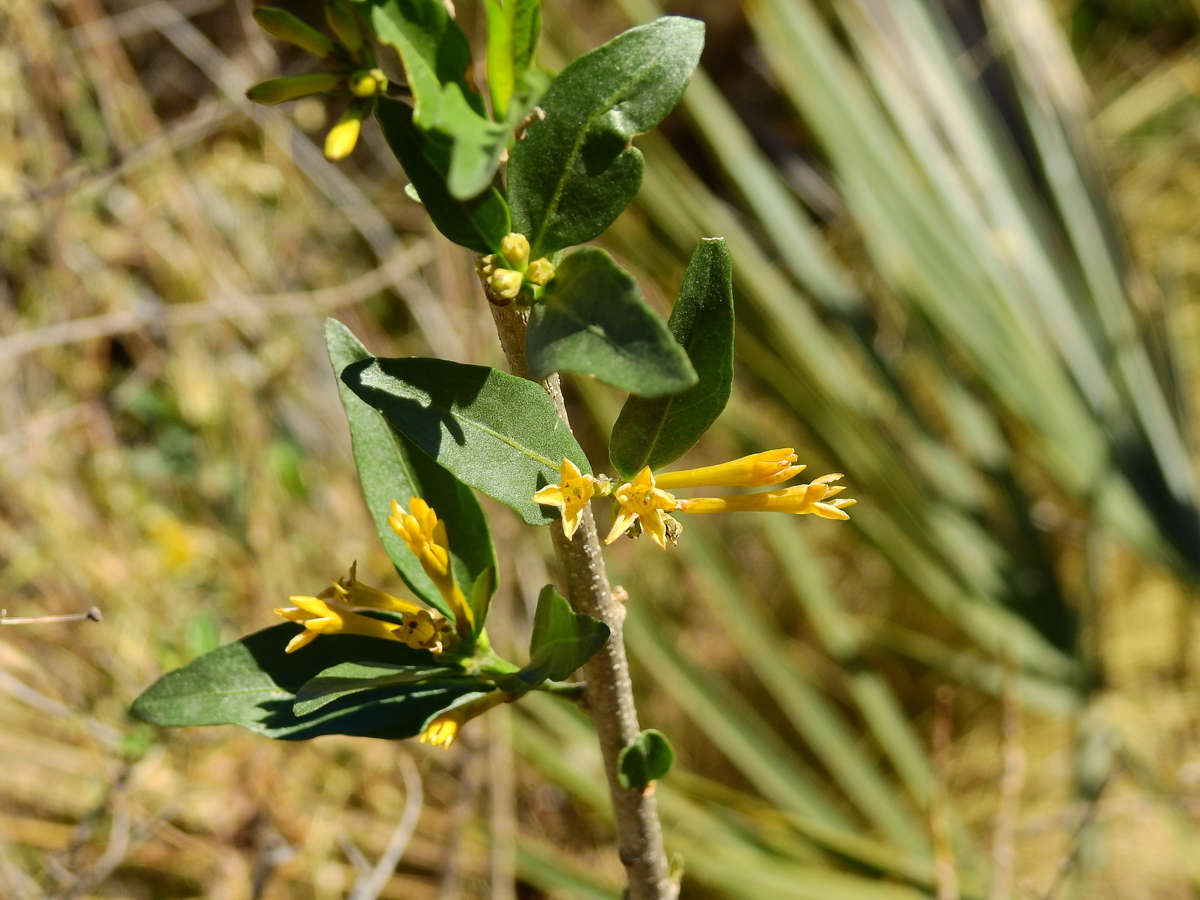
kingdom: Plantae
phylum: Tracheophyta
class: Magnoliopsida
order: Solanales
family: Solanaceae
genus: Cestrum
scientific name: Cestrum parqui
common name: Chilean cestrum
